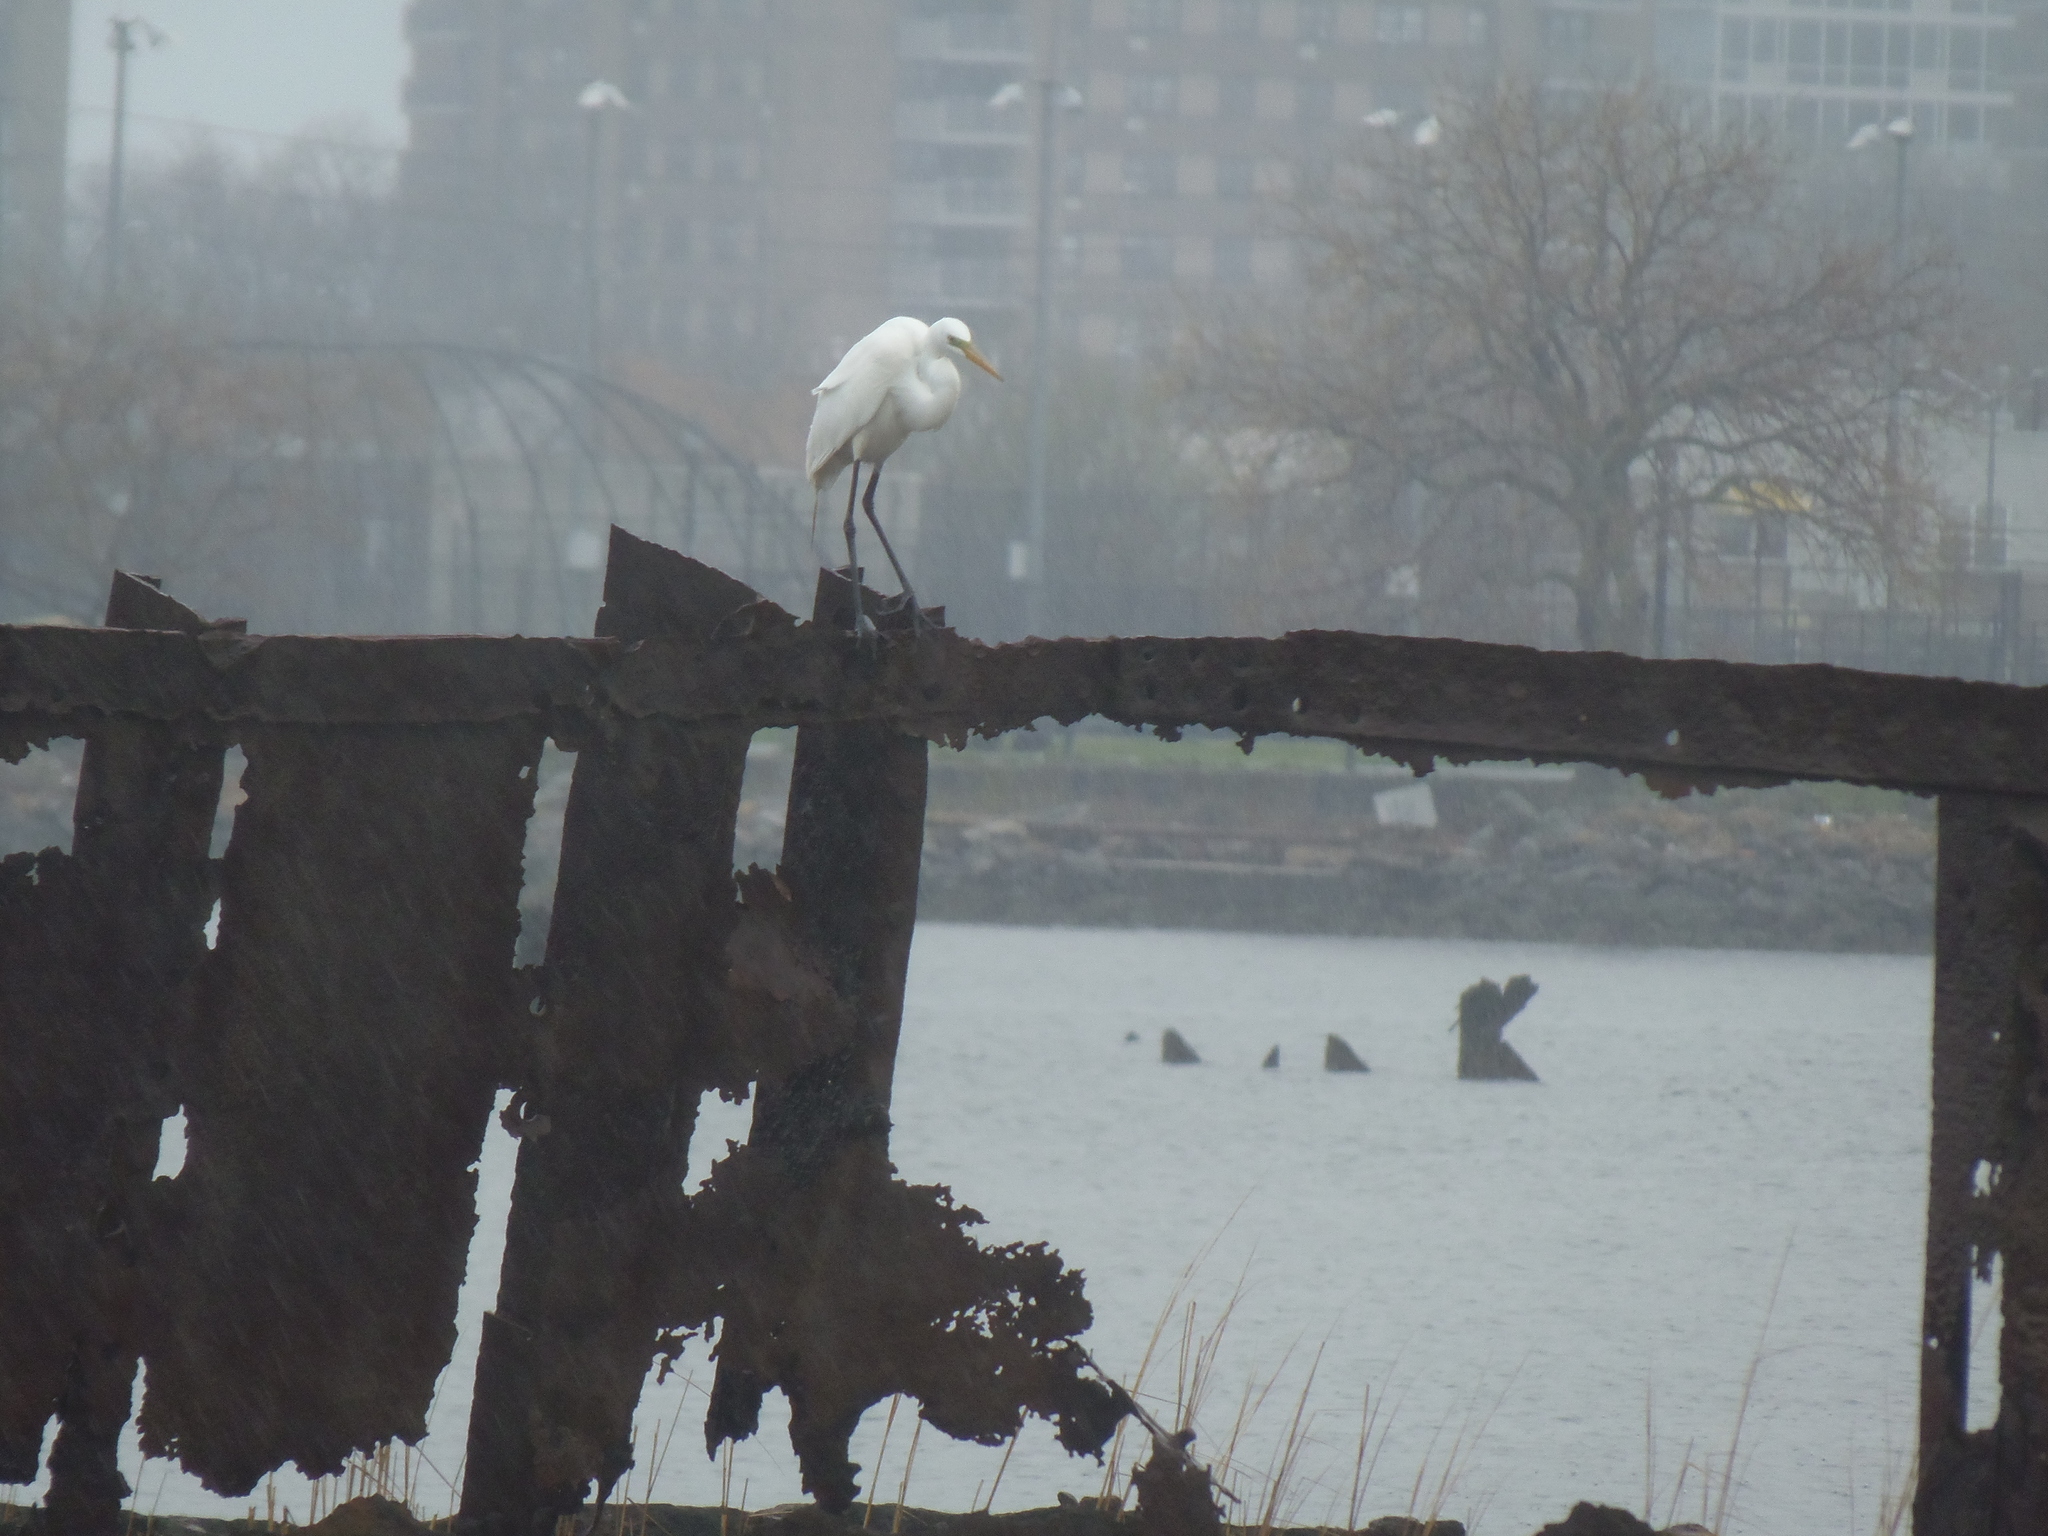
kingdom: Animalia
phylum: Chordata
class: Aves
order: Pelecaniformes
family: Ardeidae
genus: Ardea
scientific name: Ardea alba
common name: Great egret
